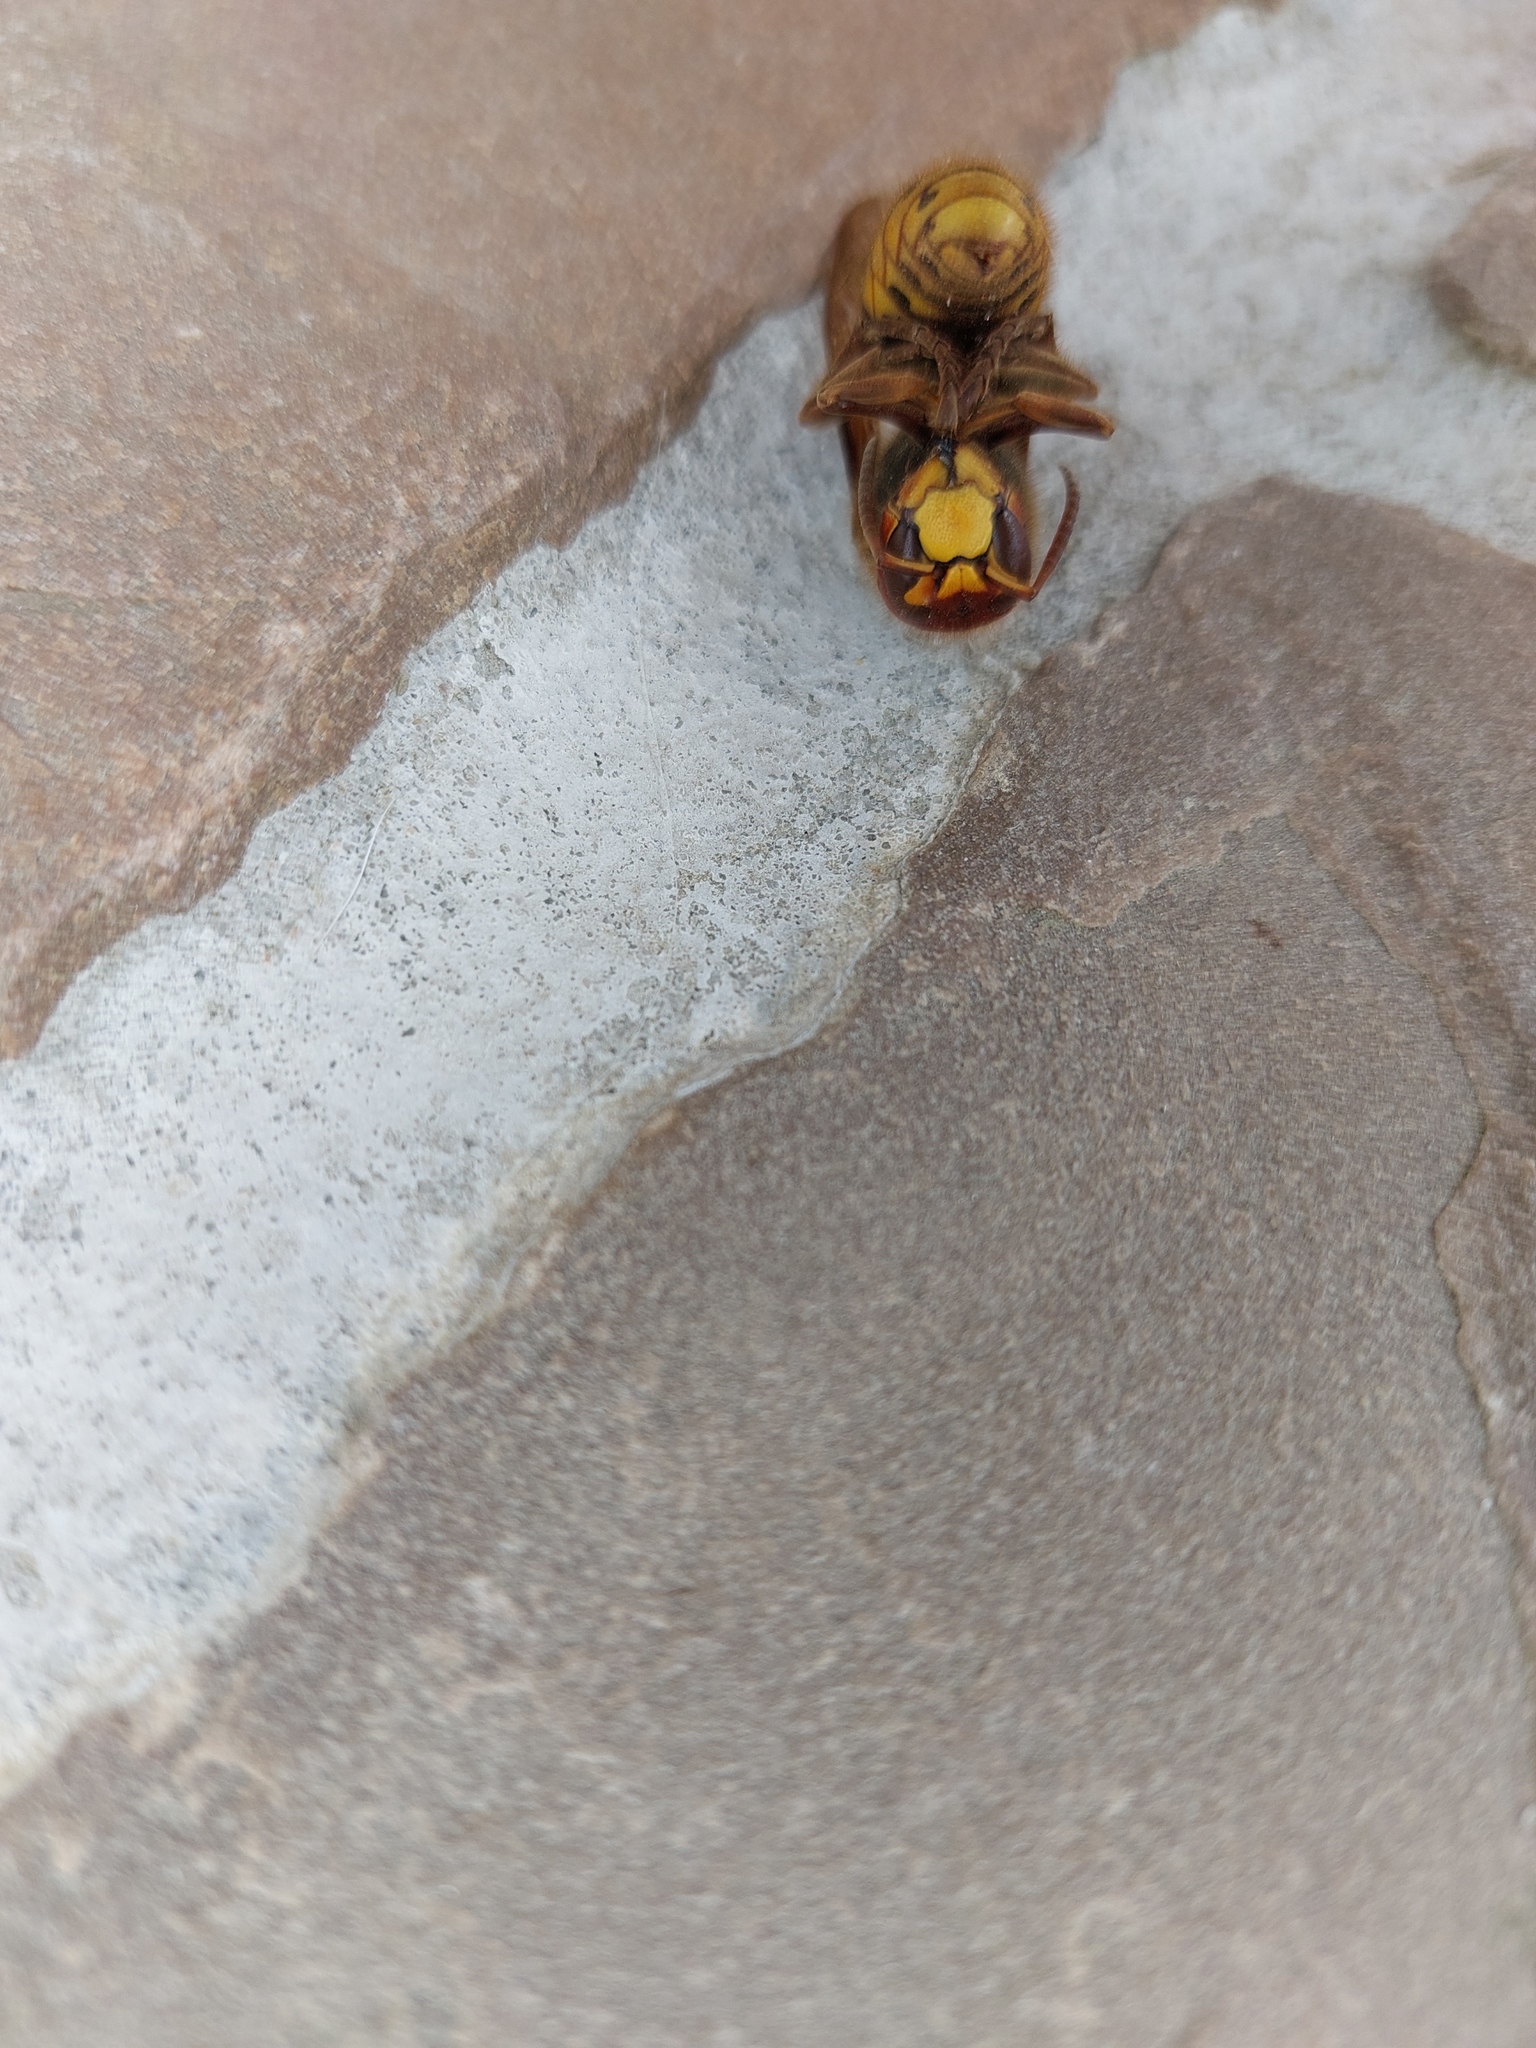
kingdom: Animalia
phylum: Arthropoda
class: Insecta
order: Hymenoptera
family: Vespidae
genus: Vespa
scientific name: Vespa crabro
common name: Hornet
